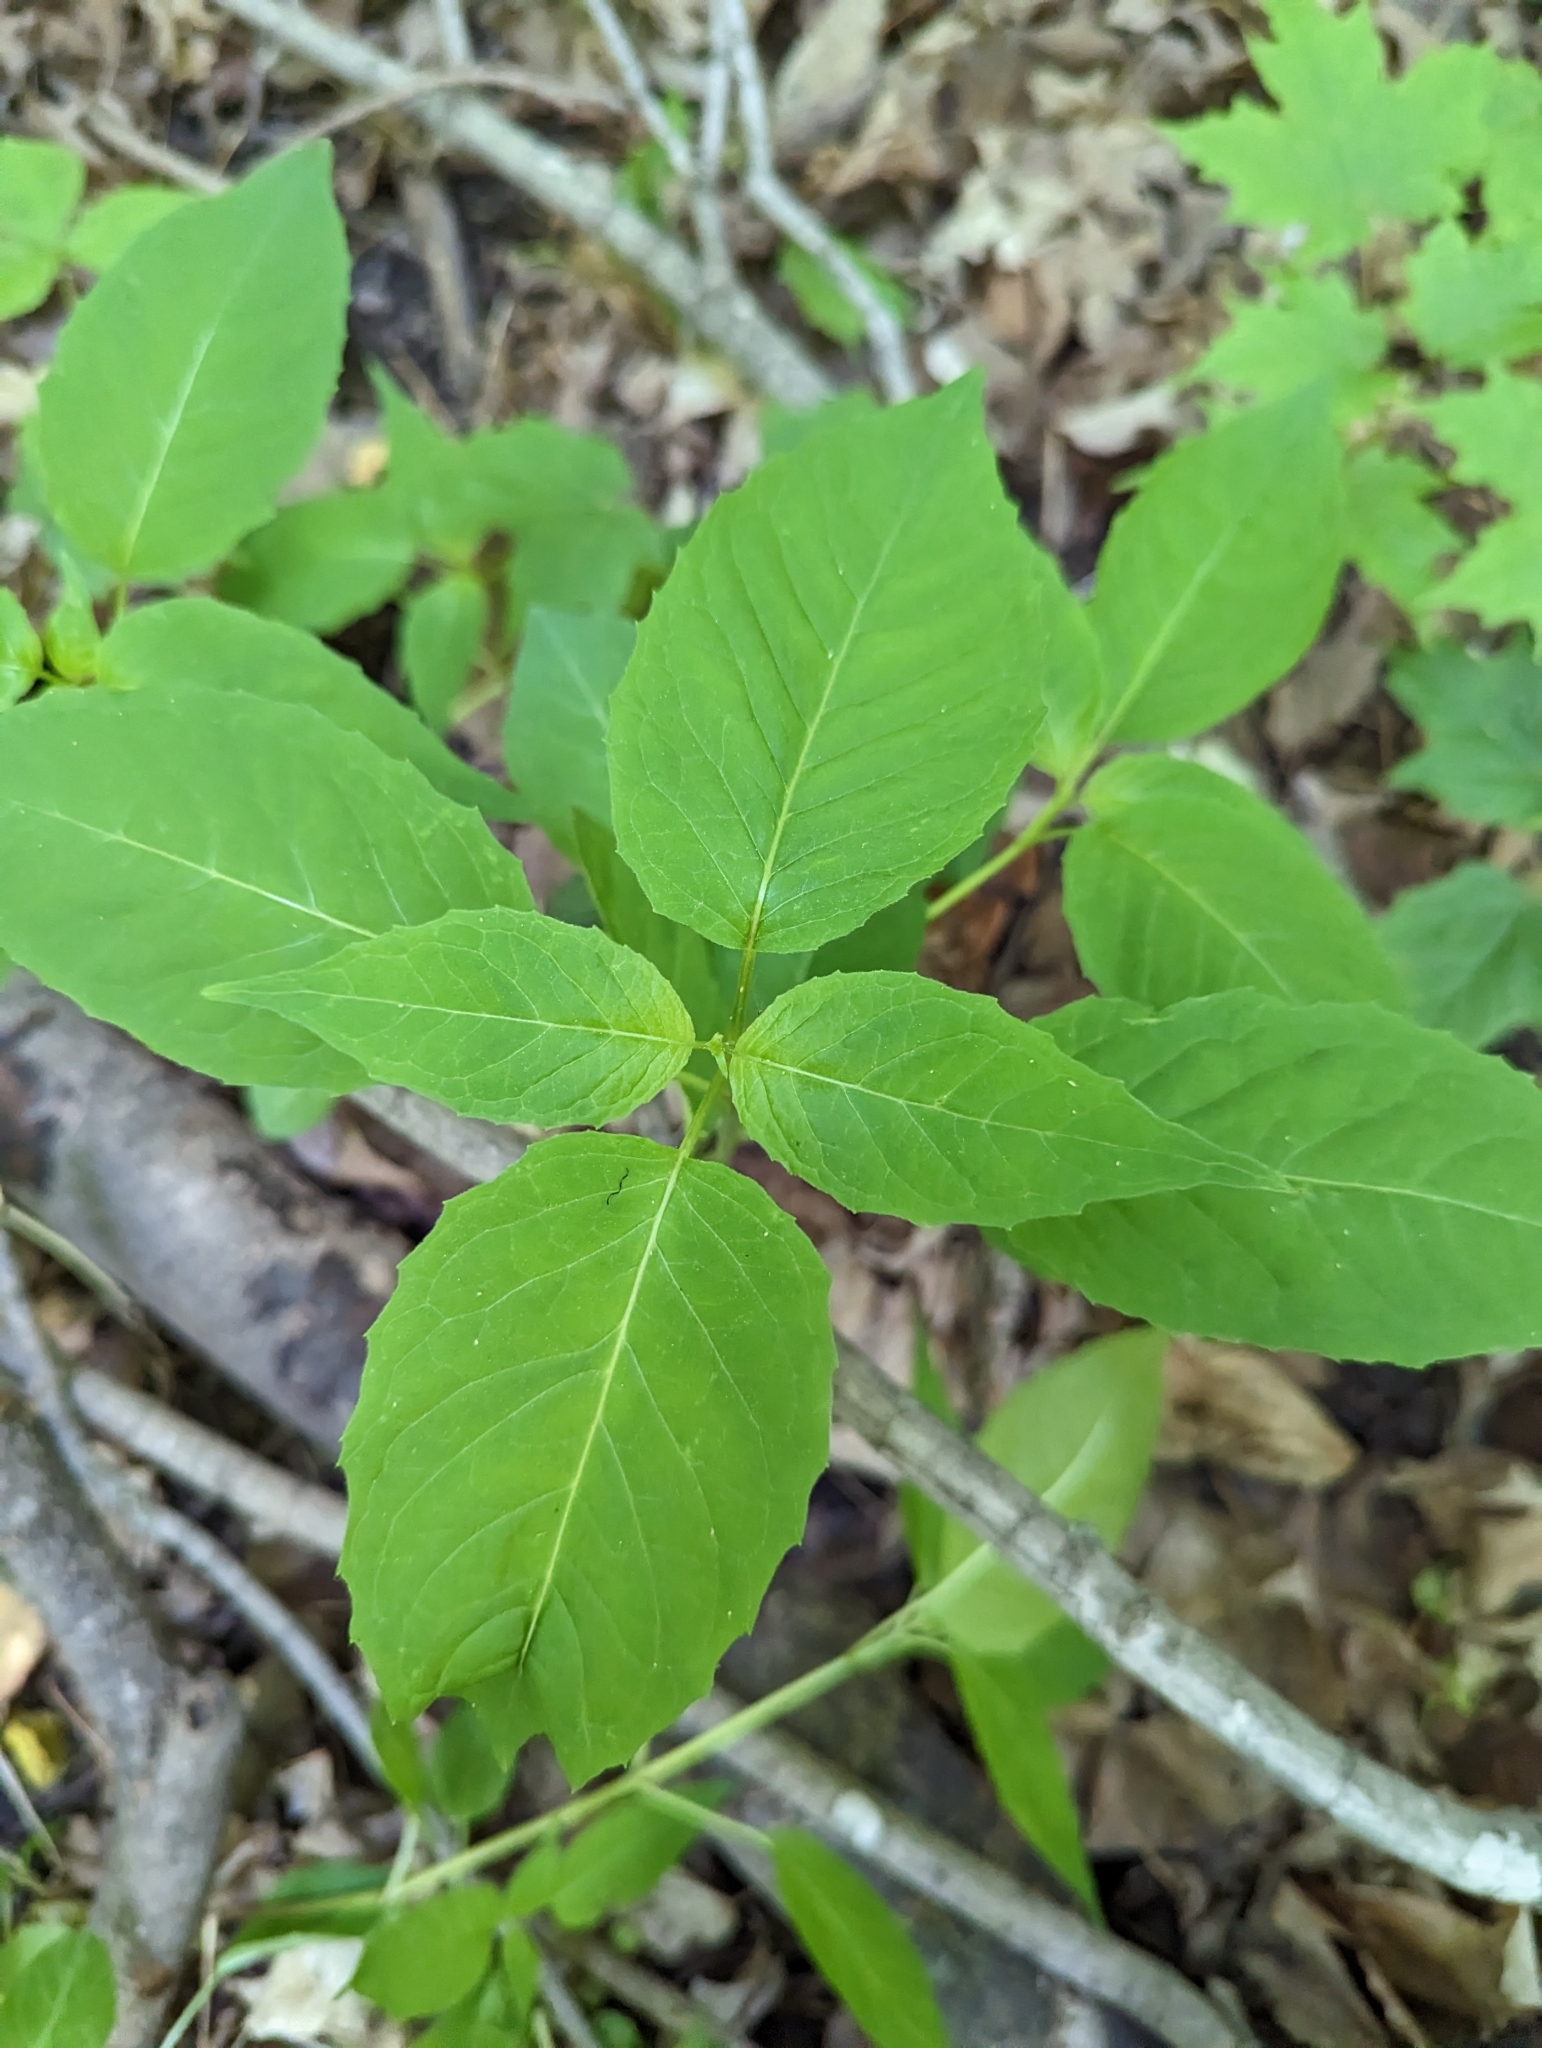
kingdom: Plantae
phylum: Tracheophyta
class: Magnoliopsida
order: Myrtales
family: Onagraceae
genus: Circaea
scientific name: Circaea canadensis
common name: Broad-leaved enchanter's nightshade
